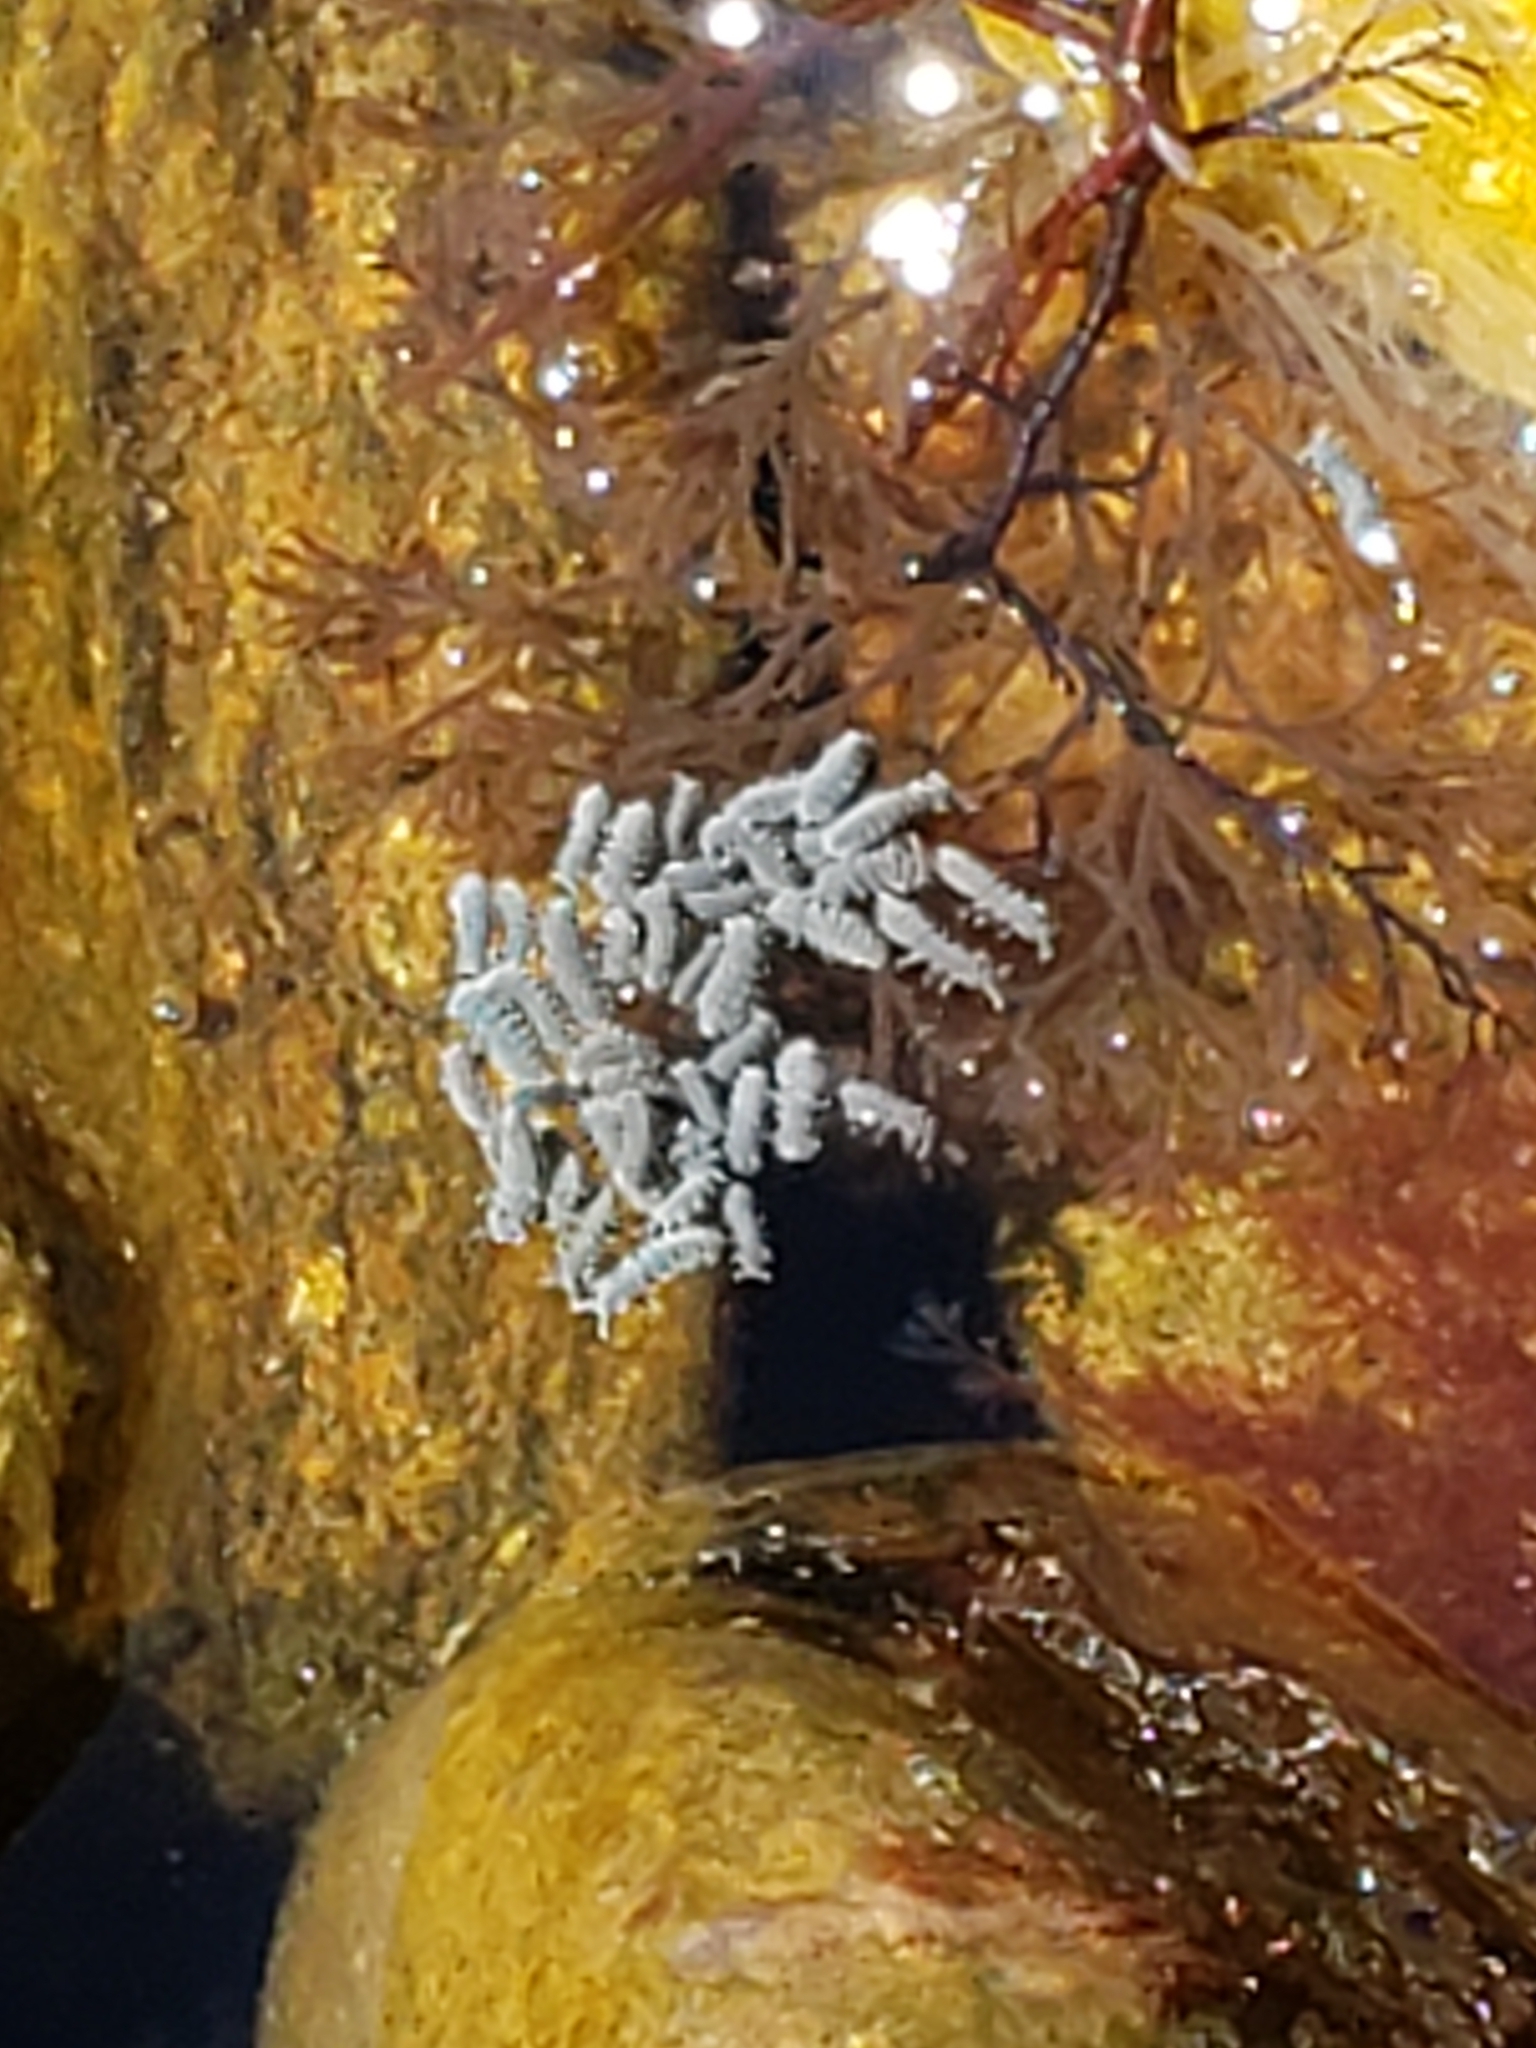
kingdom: Animalia
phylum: Arthropoda
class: Collembola
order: Poduromorpha
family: Neanuridae
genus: Anurida
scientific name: Anurida maritima
